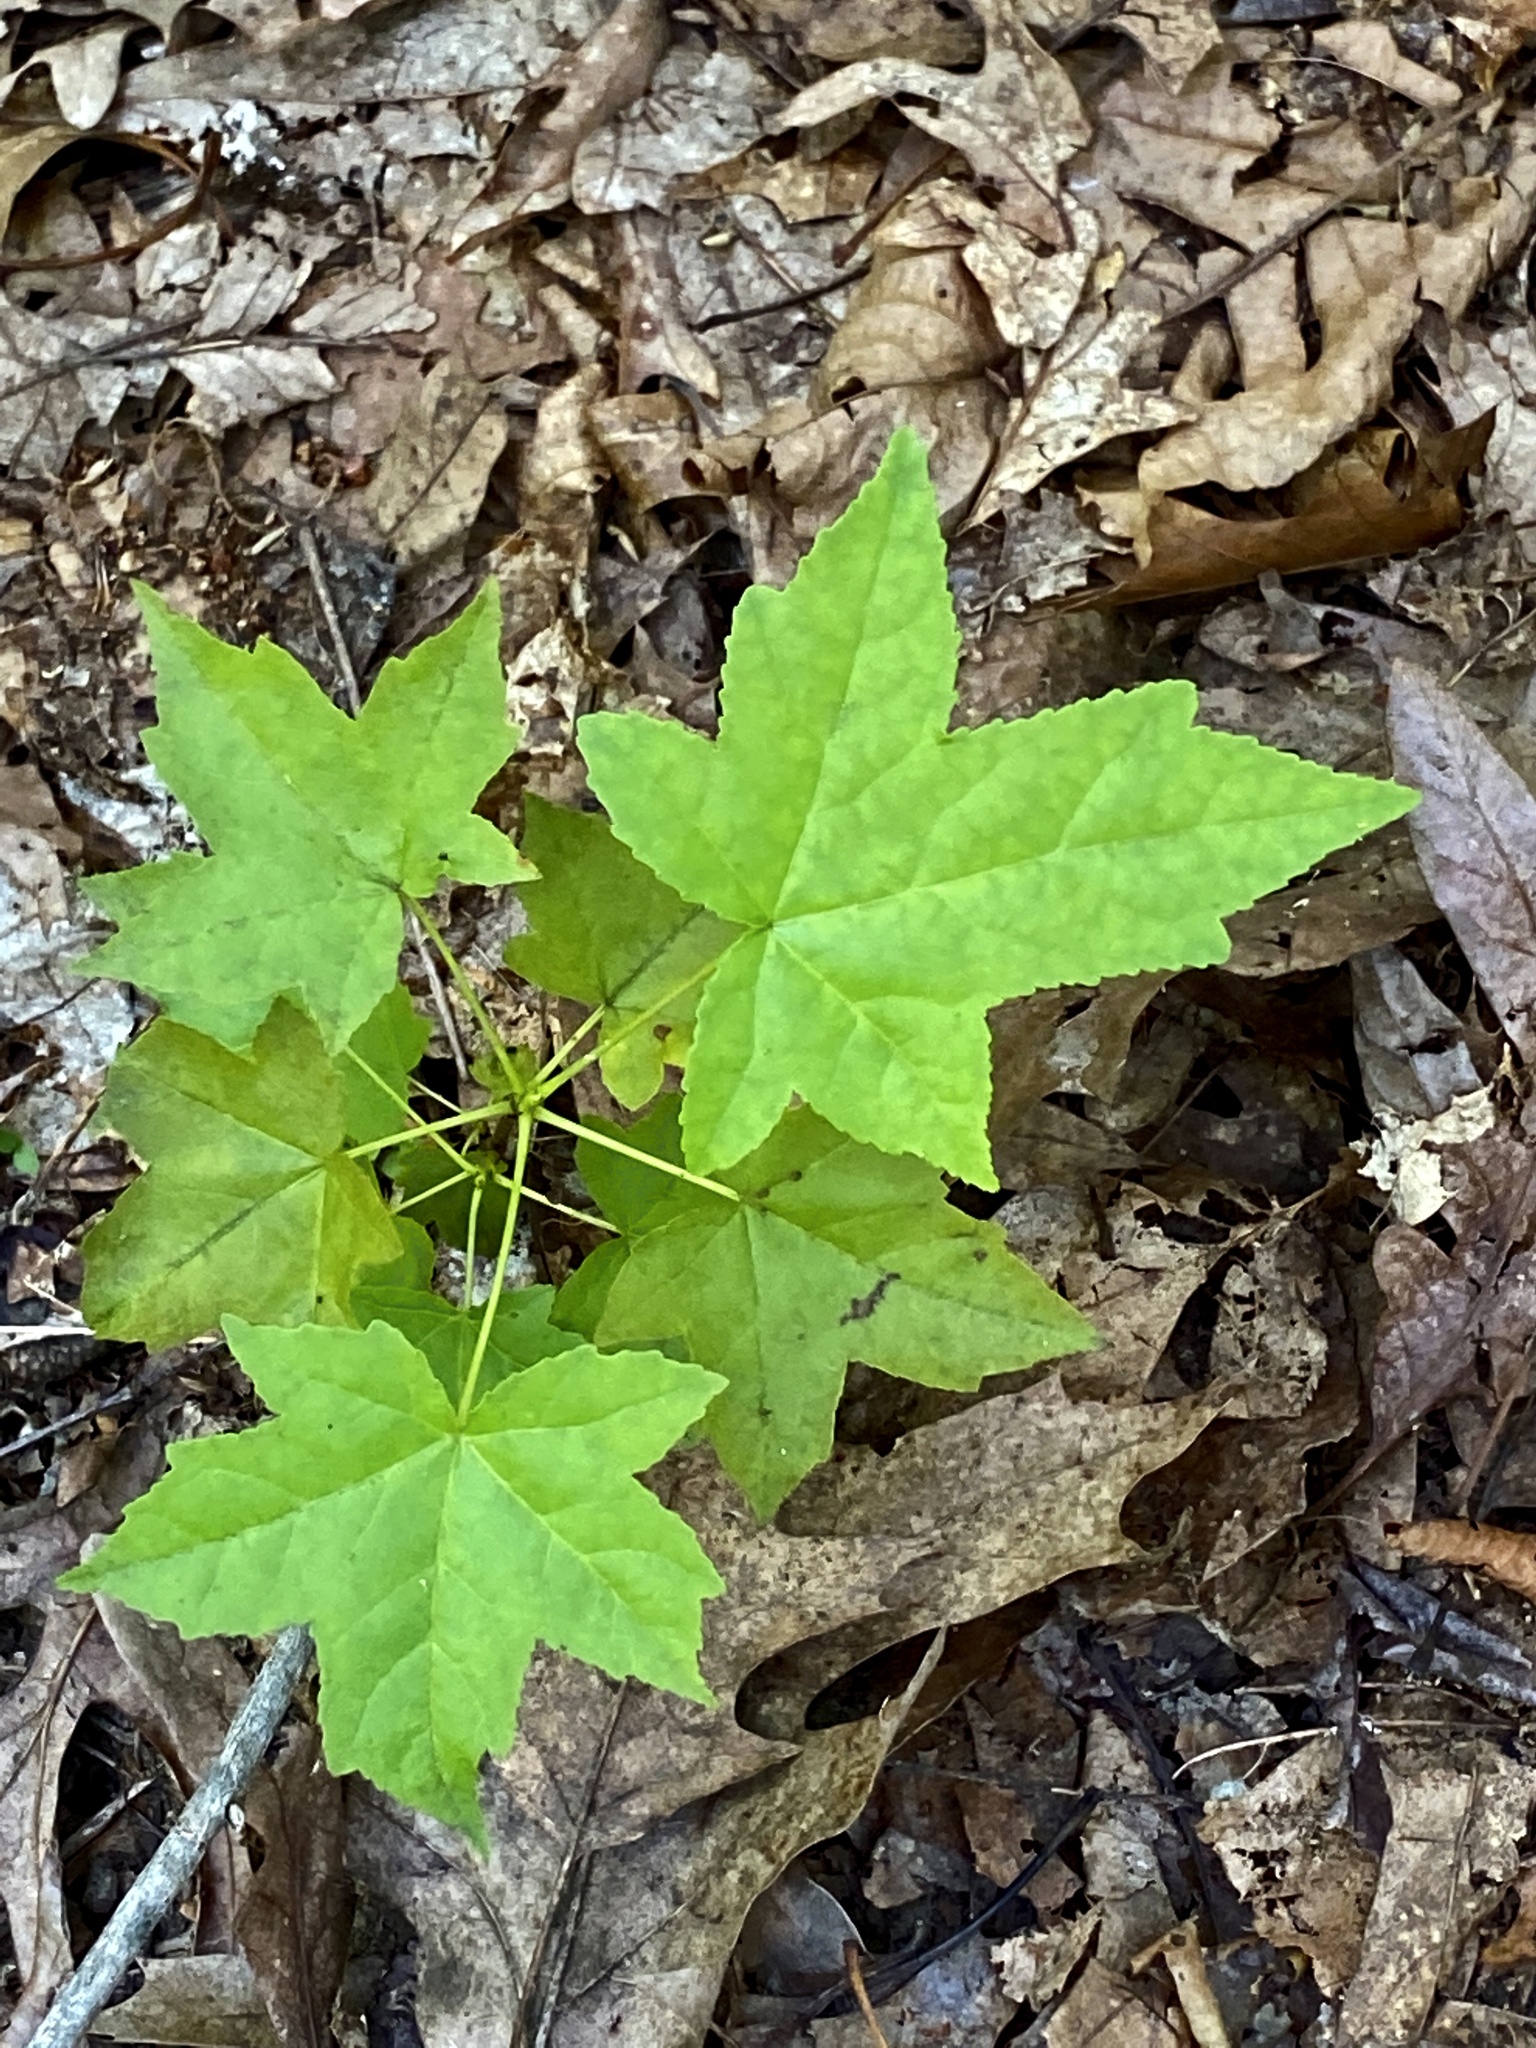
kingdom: Plantae
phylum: Tracheophyta
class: Magnoliopsida
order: Saxifragales
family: Altingiaceae
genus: Liquidambar
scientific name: Liquidambar styraciflua
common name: Sweet gum
